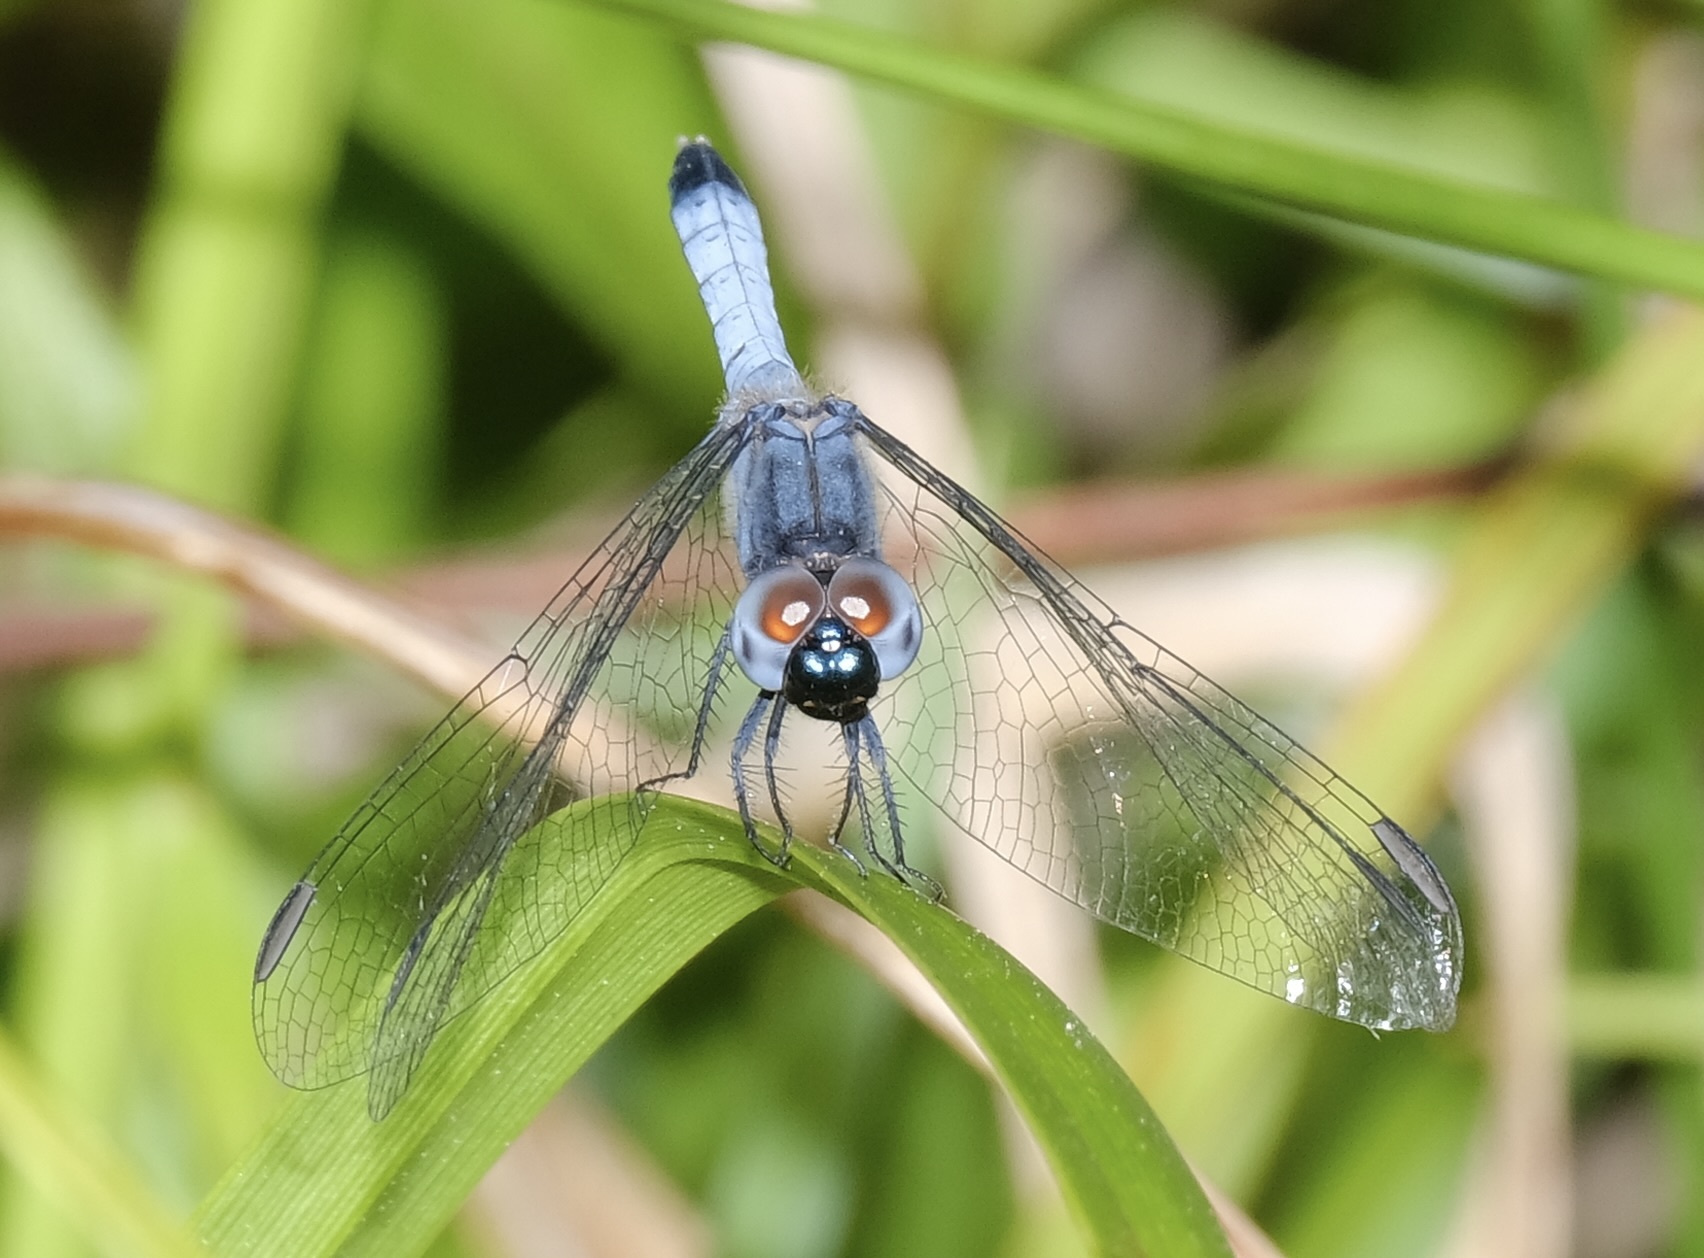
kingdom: Animalia
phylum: Arthropoda
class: Insecta
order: Odonata
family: Libellulidae
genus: Erythrodiplax
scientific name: Erythrodiplax minuscula
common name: Little blue dragonlet
